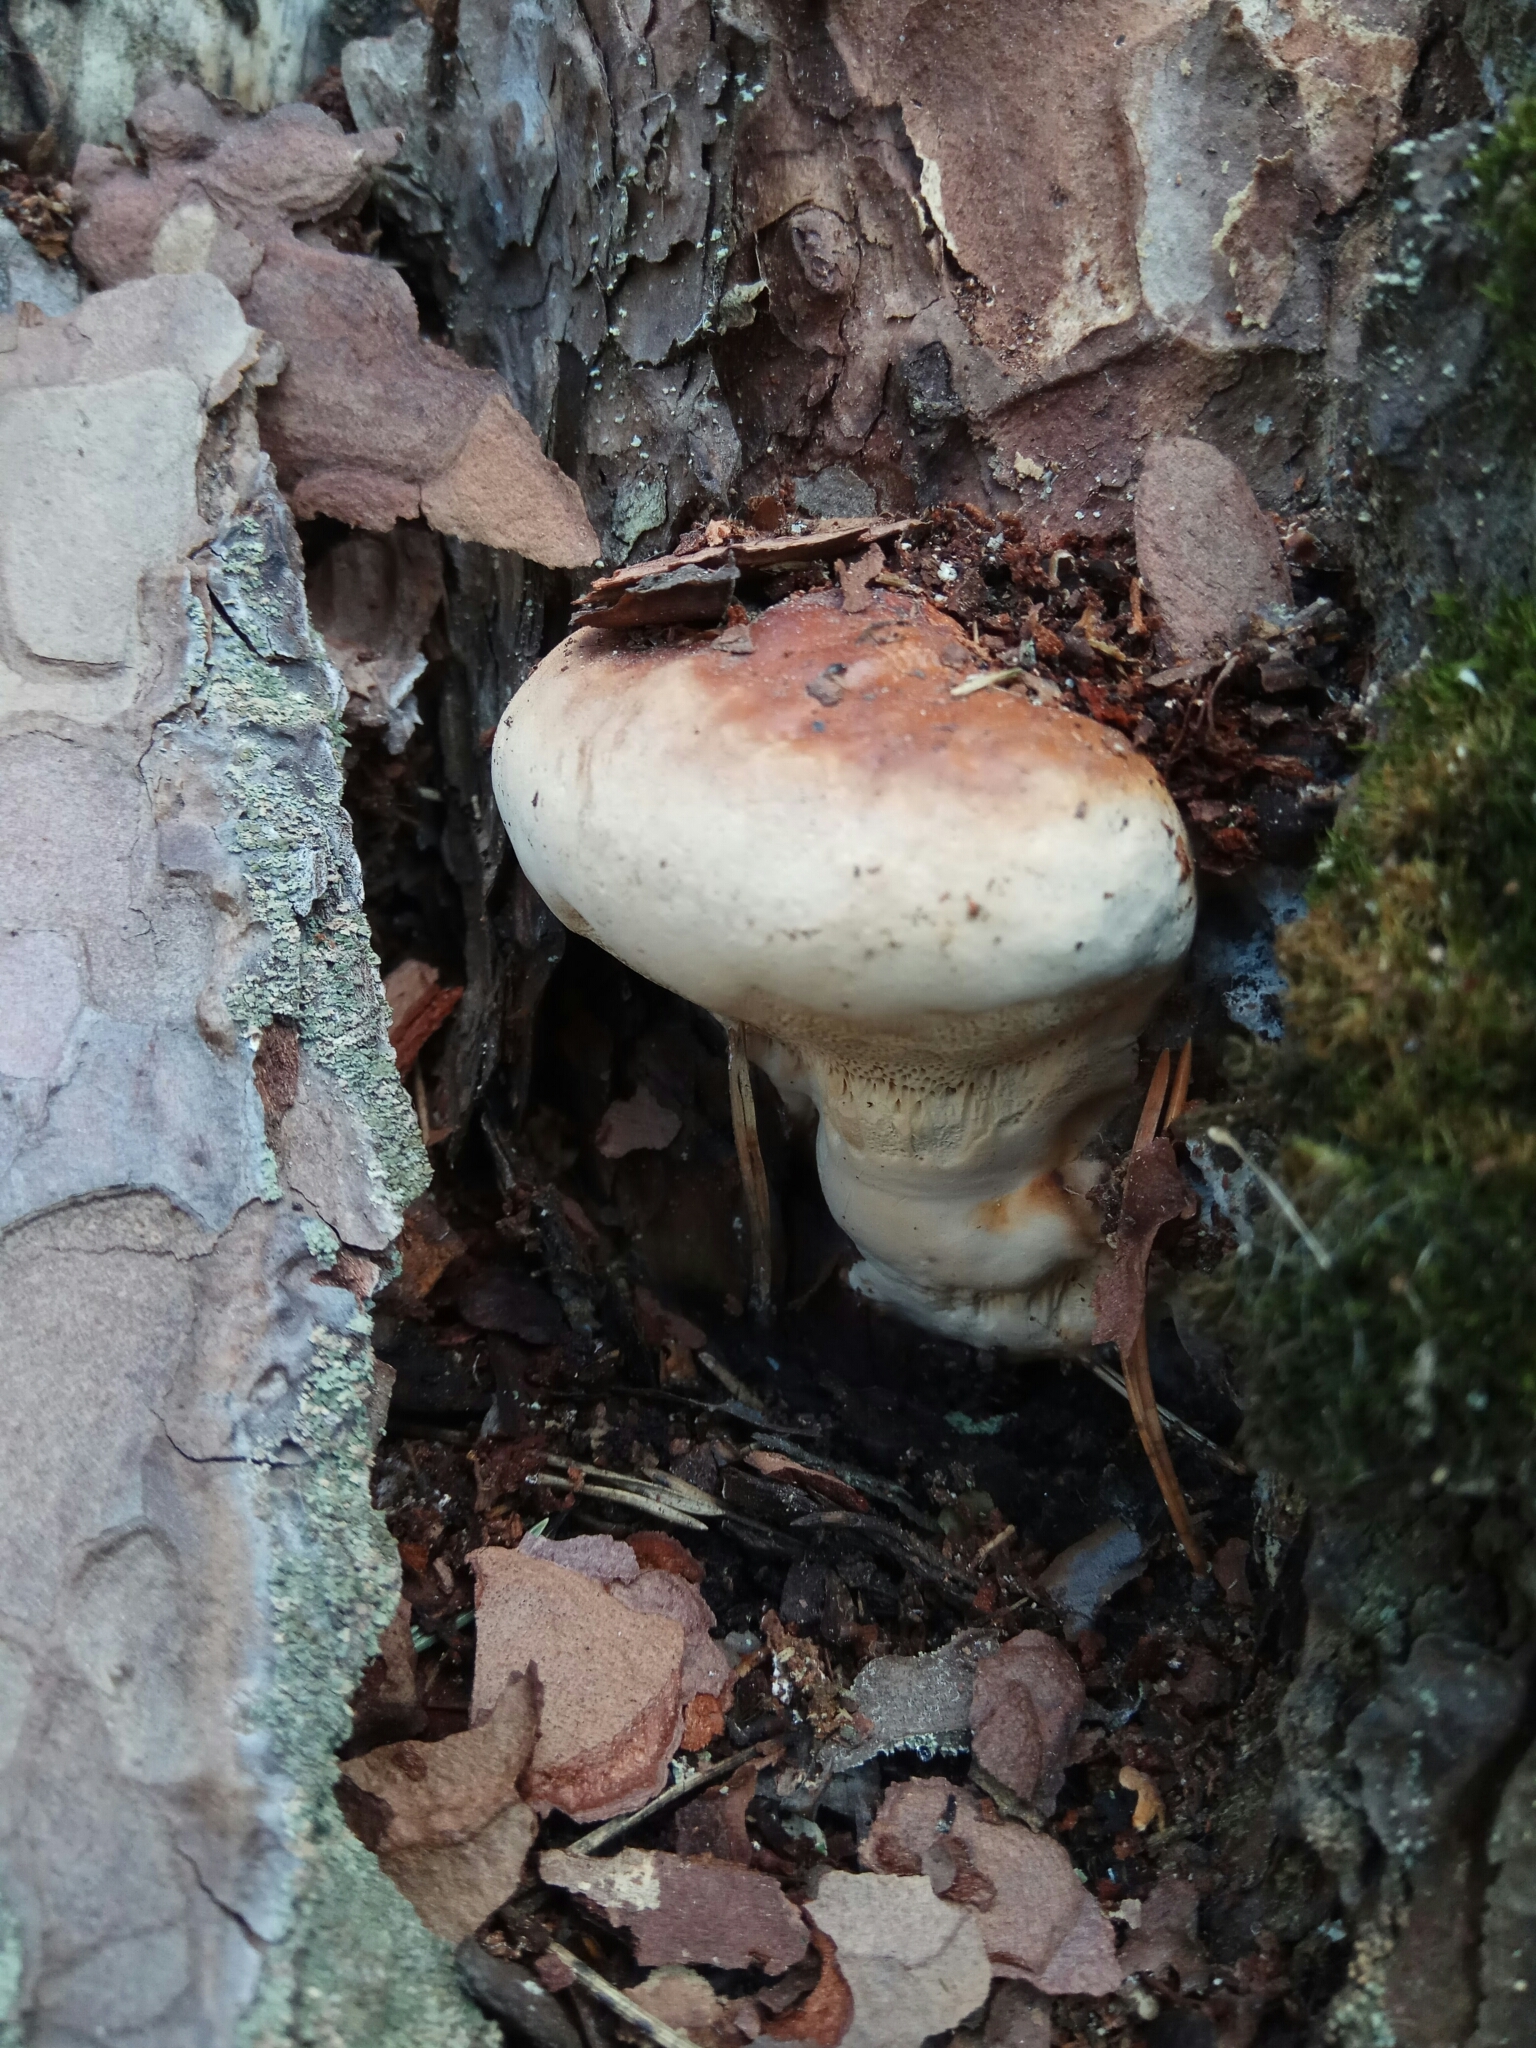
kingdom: Fungi
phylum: Basidiomycota
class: Agaricomycetes
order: Polyporales
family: Fomitopsidaceae
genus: Fomitopsis
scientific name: Fomitopsis pinicola
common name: Red-belted bracket
